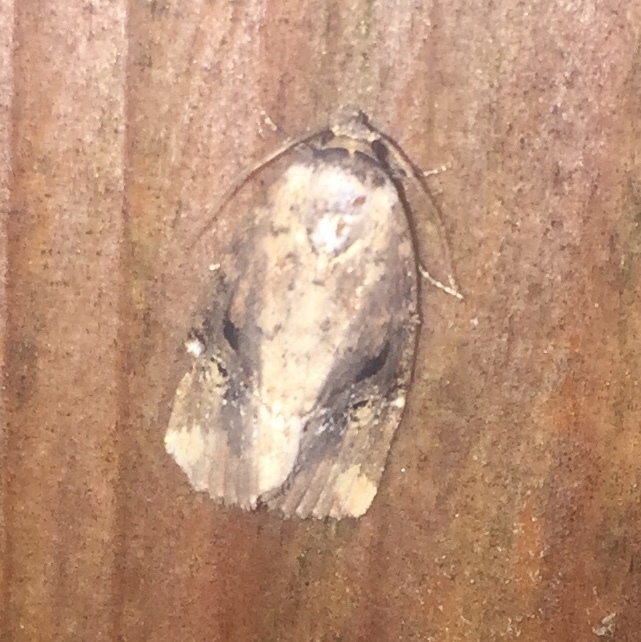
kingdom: Animalia
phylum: Arthropoda
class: Insecta
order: Lepidoptera
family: Noctuidae
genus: Elaphria
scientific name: Elaphria versicolor
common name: Fir harlequin
